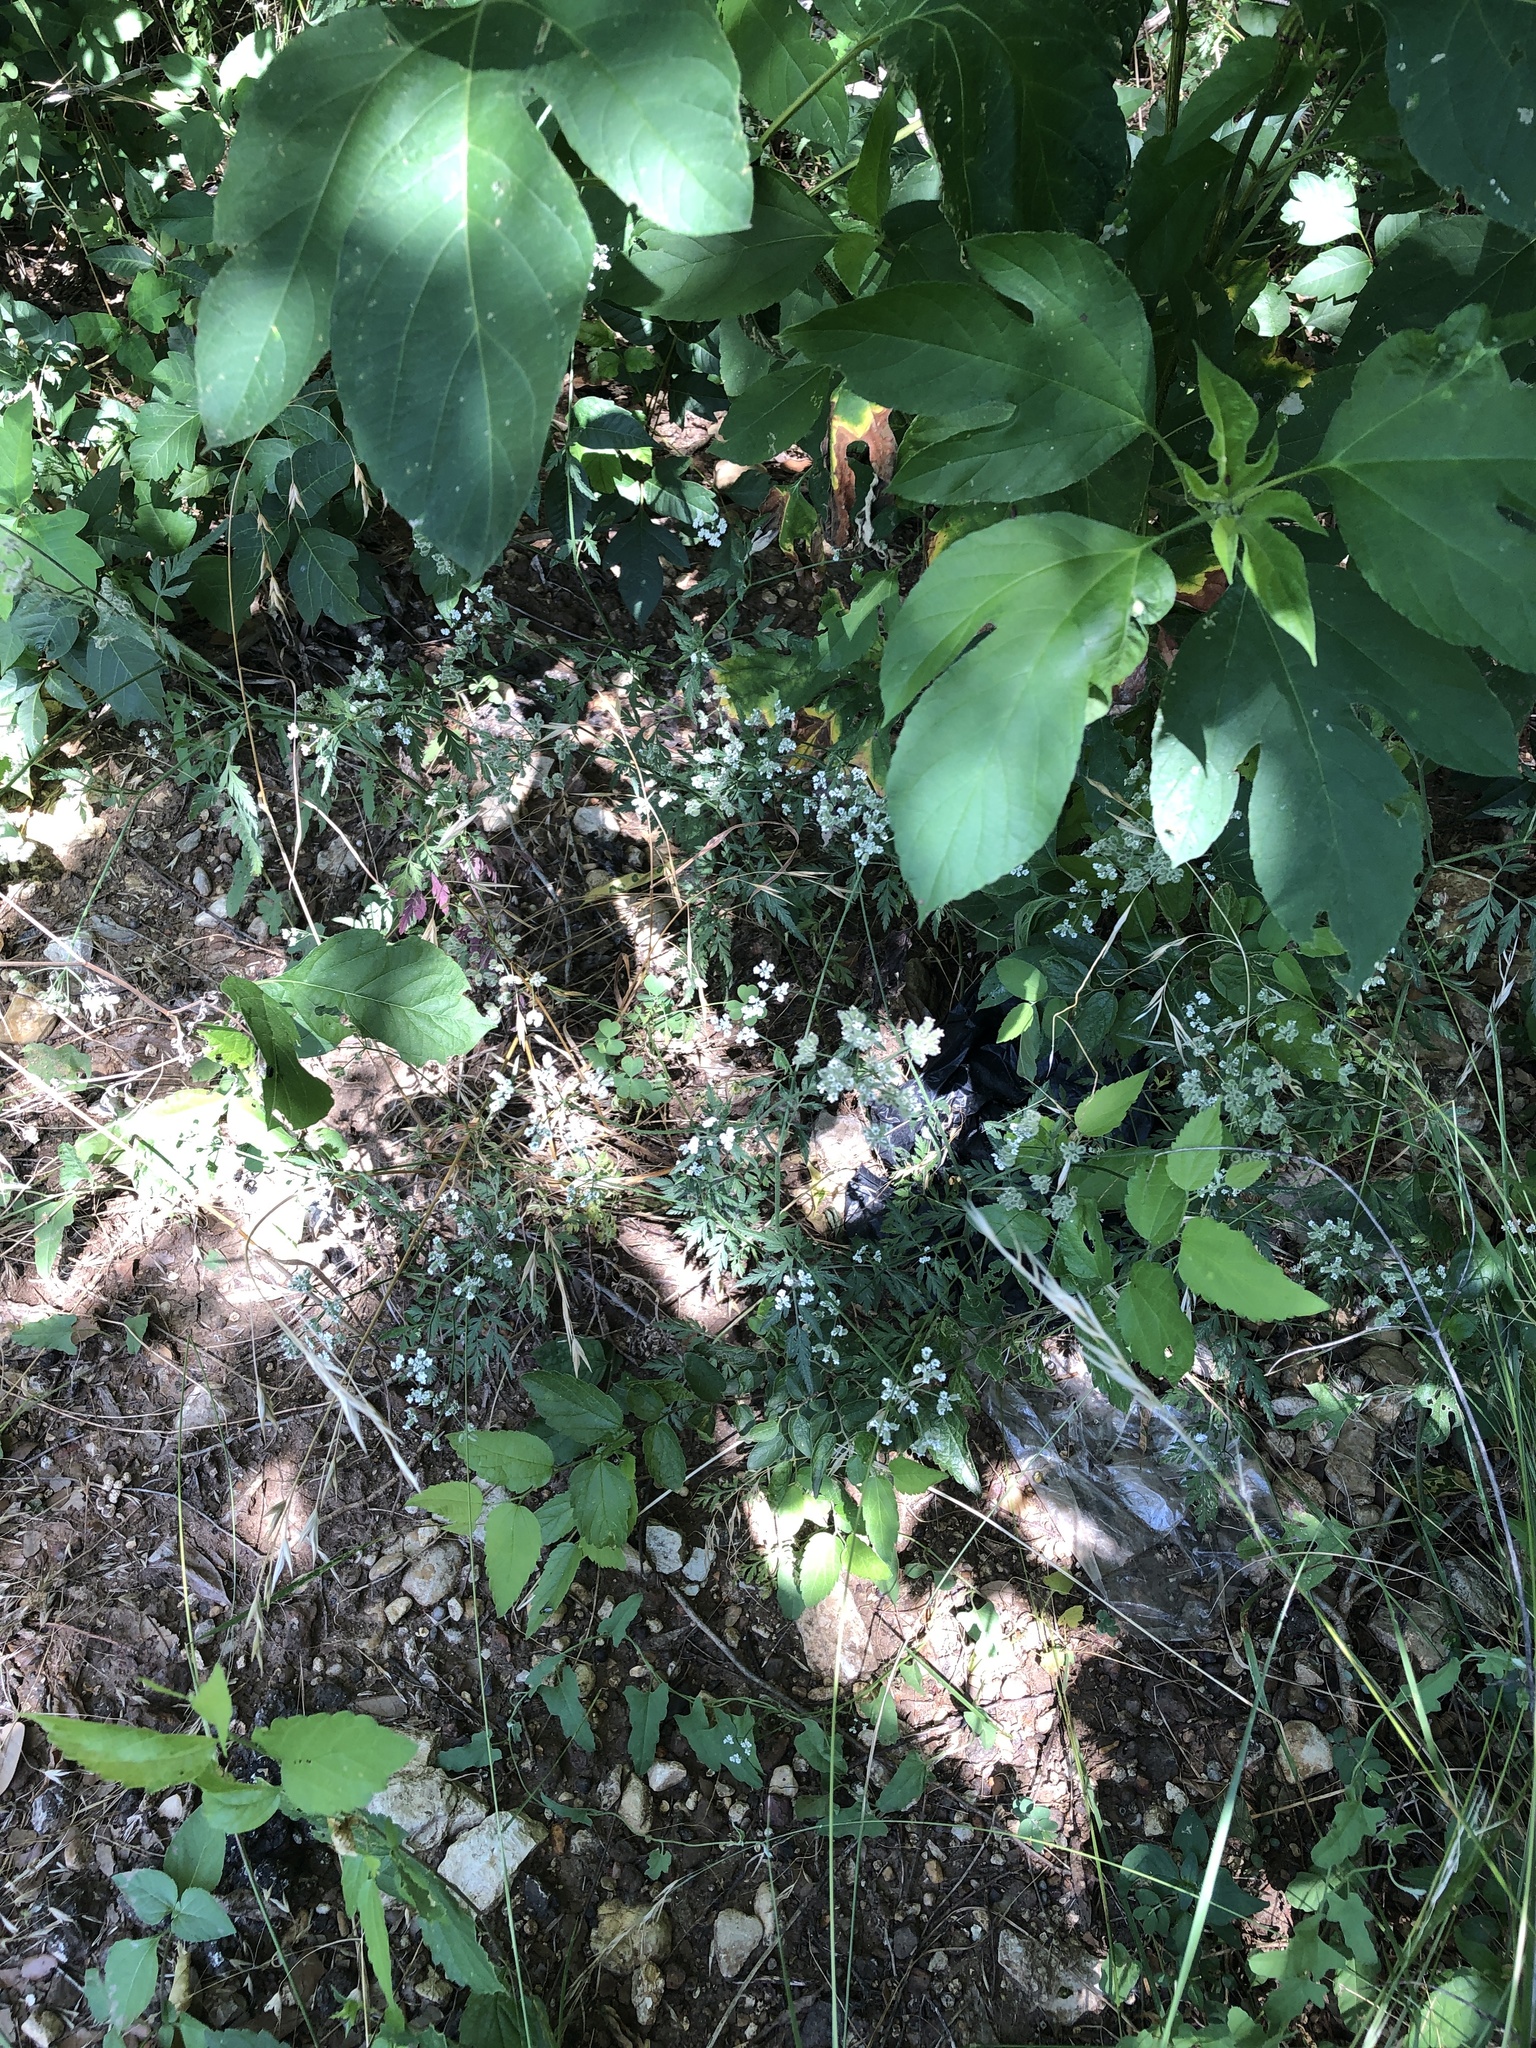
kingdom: Plantae
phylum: Tracheophyta
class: Magnoliopsida
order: Apiales
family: Apiaceae
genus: Torilis
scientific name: Torilis arvensis
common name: Spreading hedge-parsley
